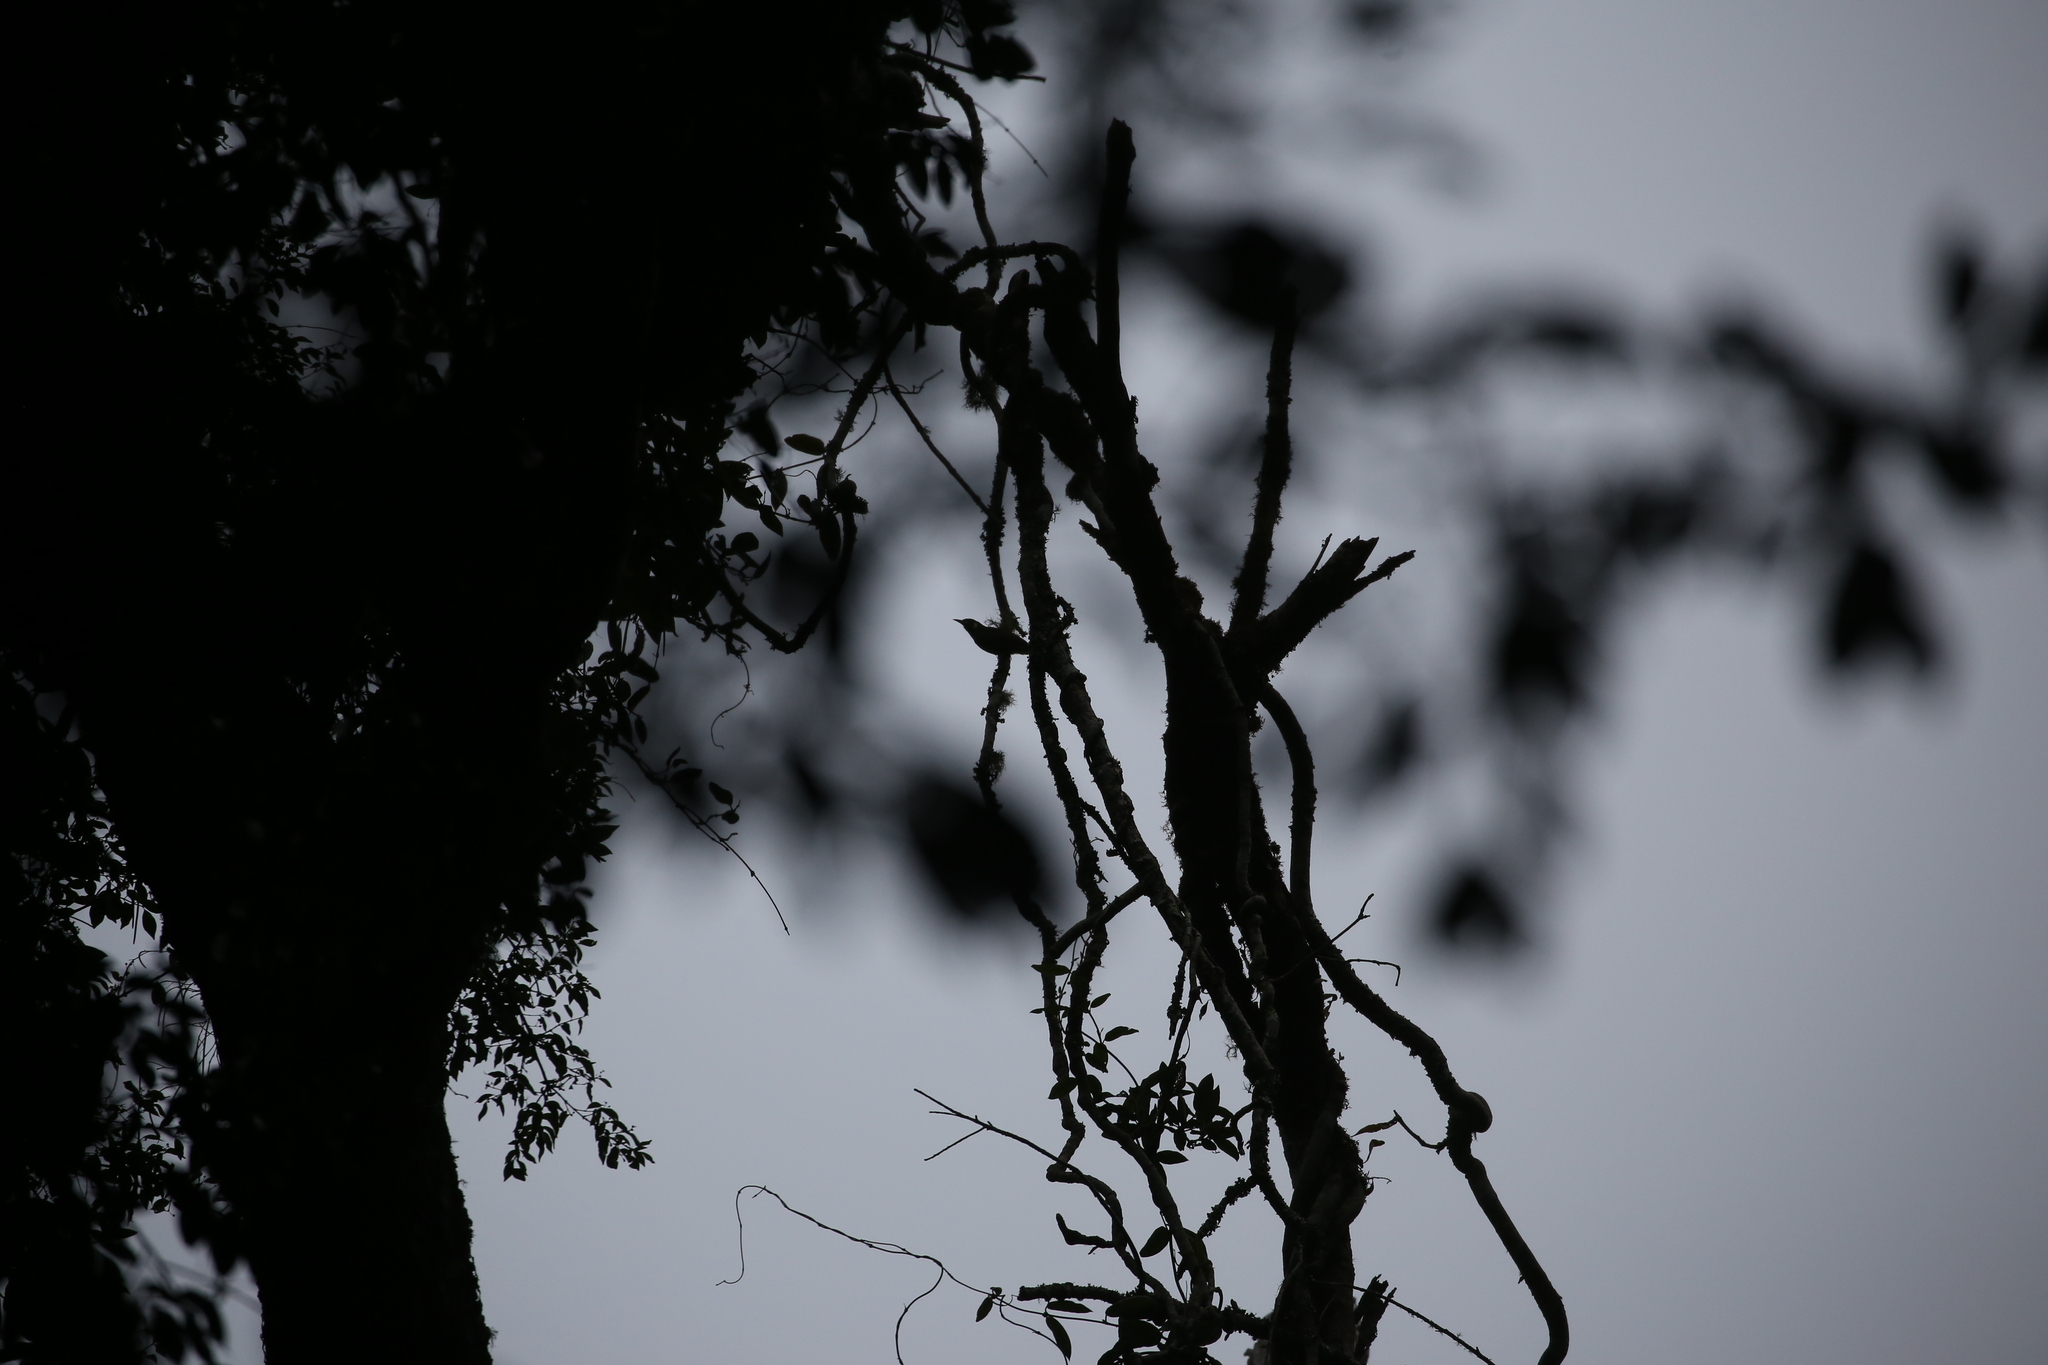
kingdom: Animalia
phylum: Chordata
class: Aves
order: Passeriformes
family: Meliphagidae
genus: Meliphaga
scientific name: Meliphaga lewinii
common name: Lewin's honeyeater
